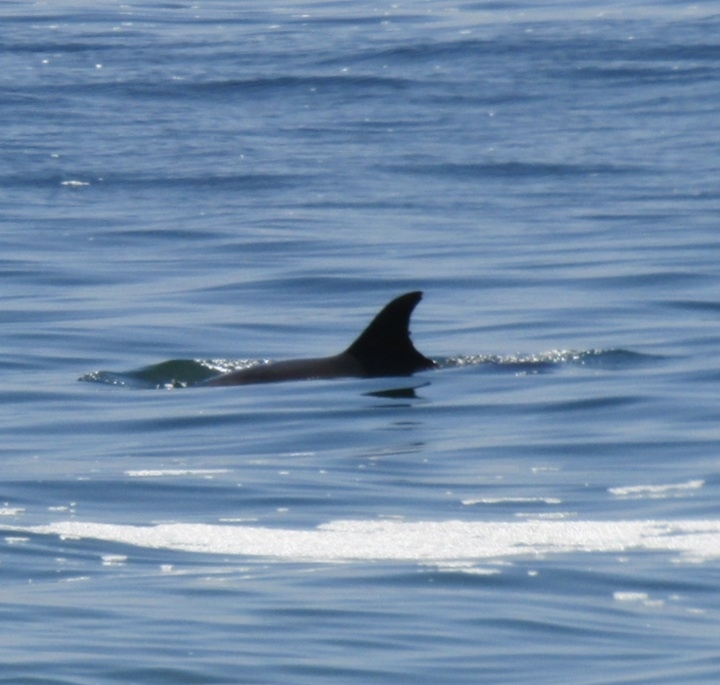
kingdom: Animalia
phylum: Chordata
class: Mammalia
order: Cetacea
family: Delphinidae
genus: Tursiops
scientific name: Tursiops truncatus
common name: Bottlenose dolphin
